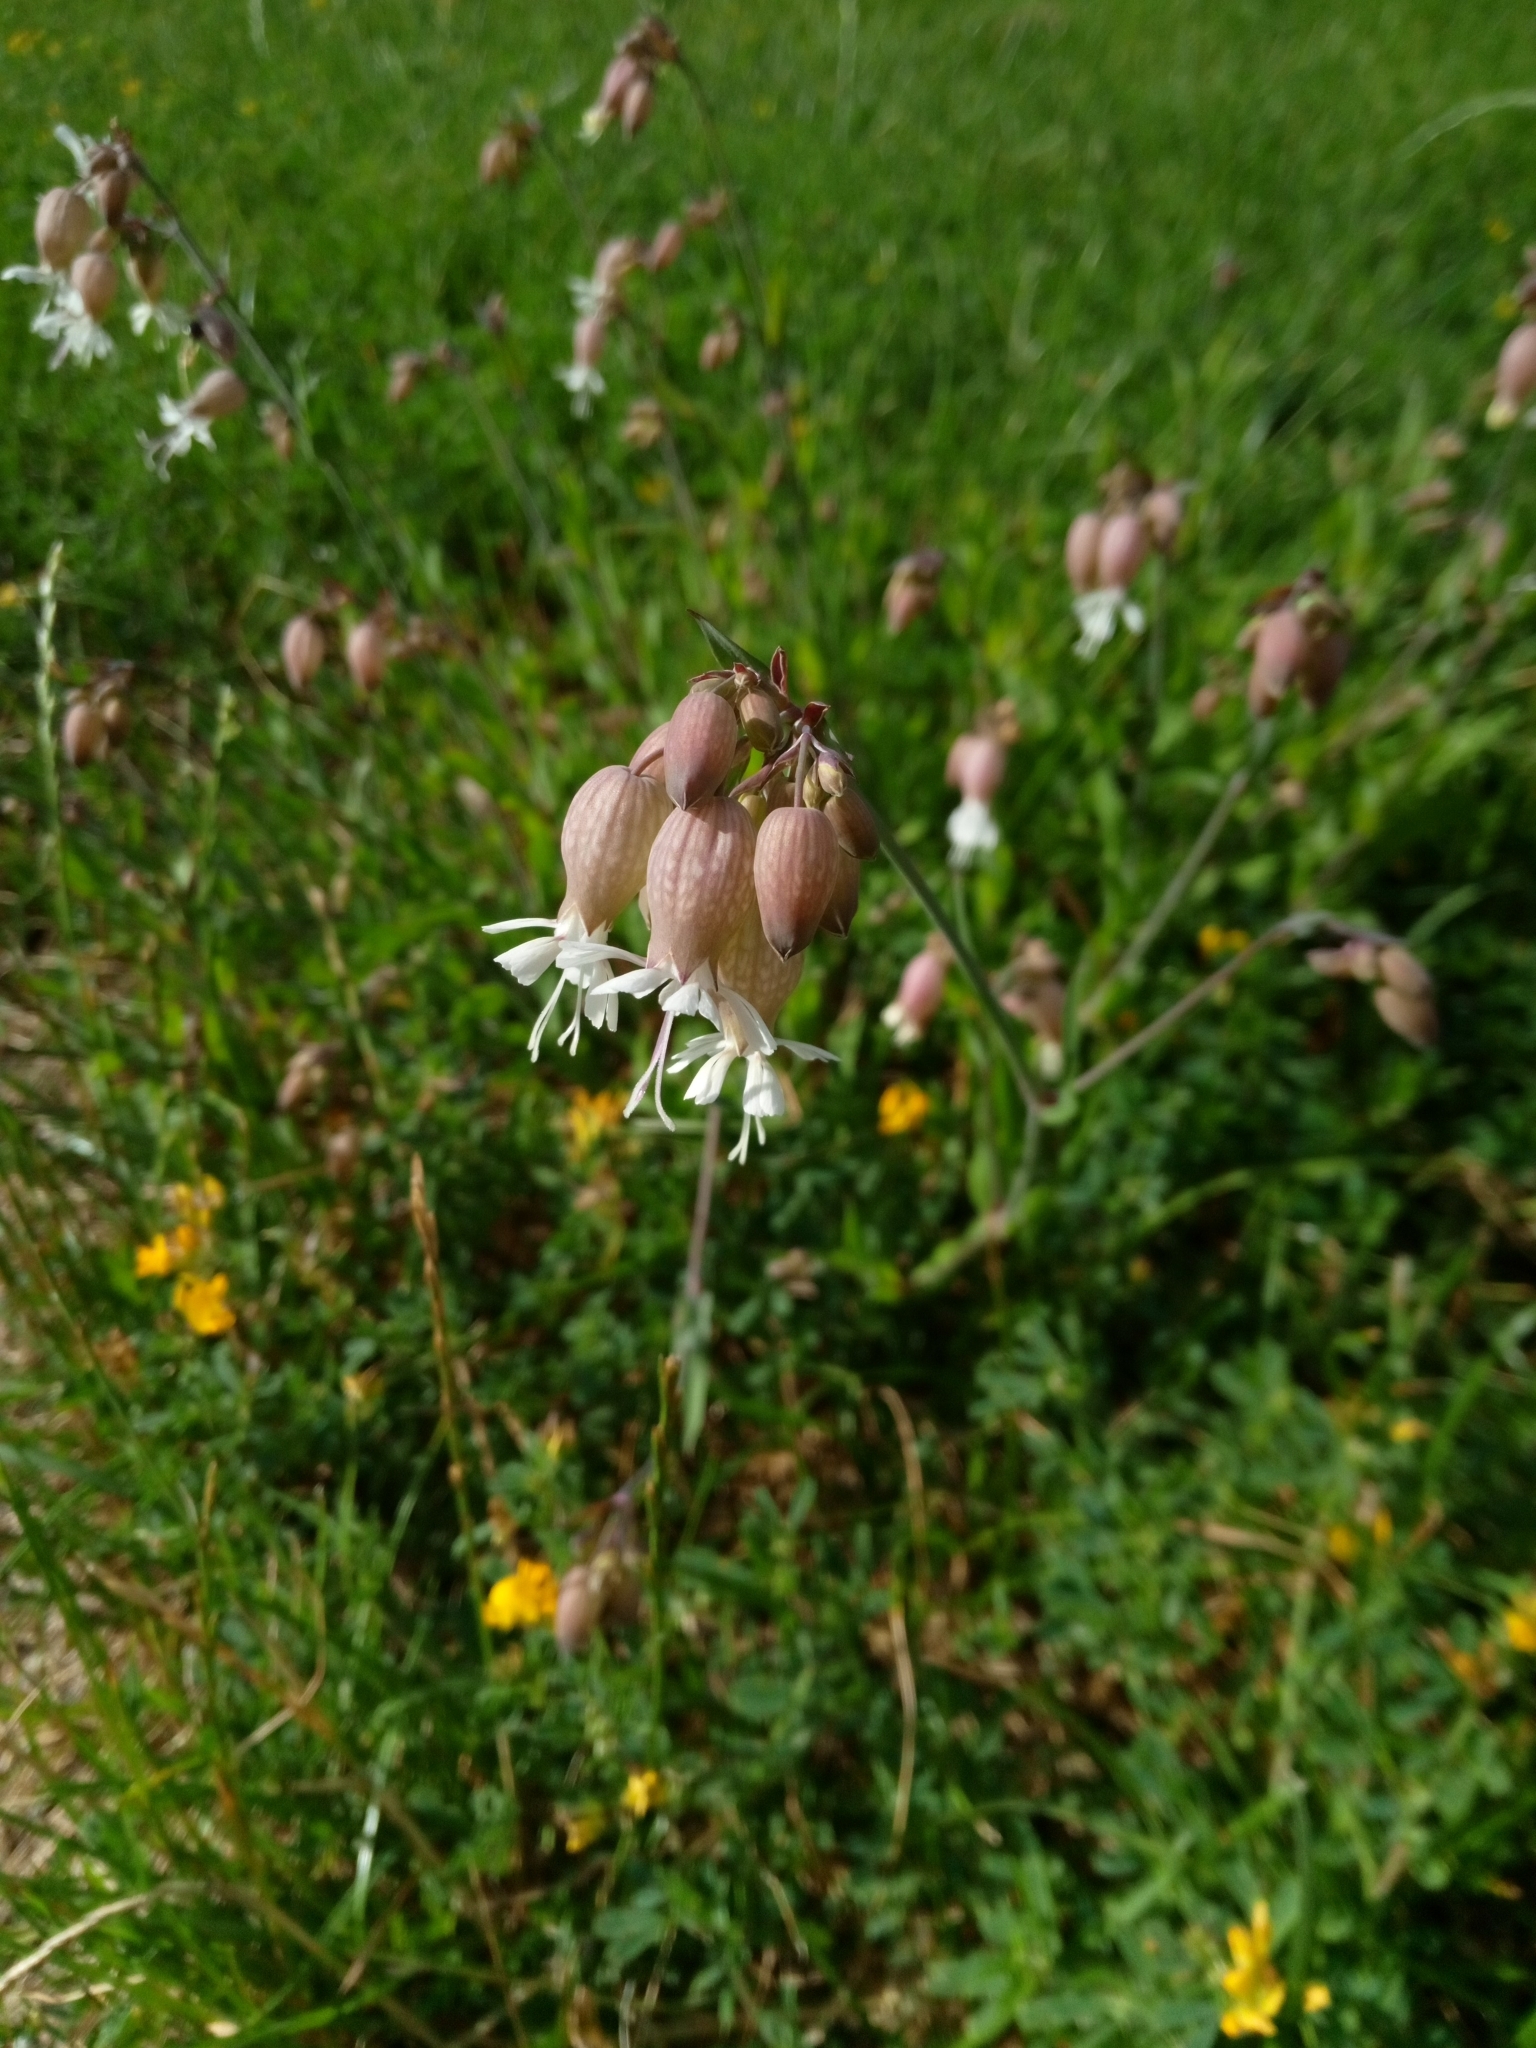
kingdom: Plantae
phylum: Tracheophyta
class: Magnoliopsida
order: Caryophyllales
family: Caryophyllaceae
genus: Silene
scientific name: Silene vulgaris
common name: Bladder campion
